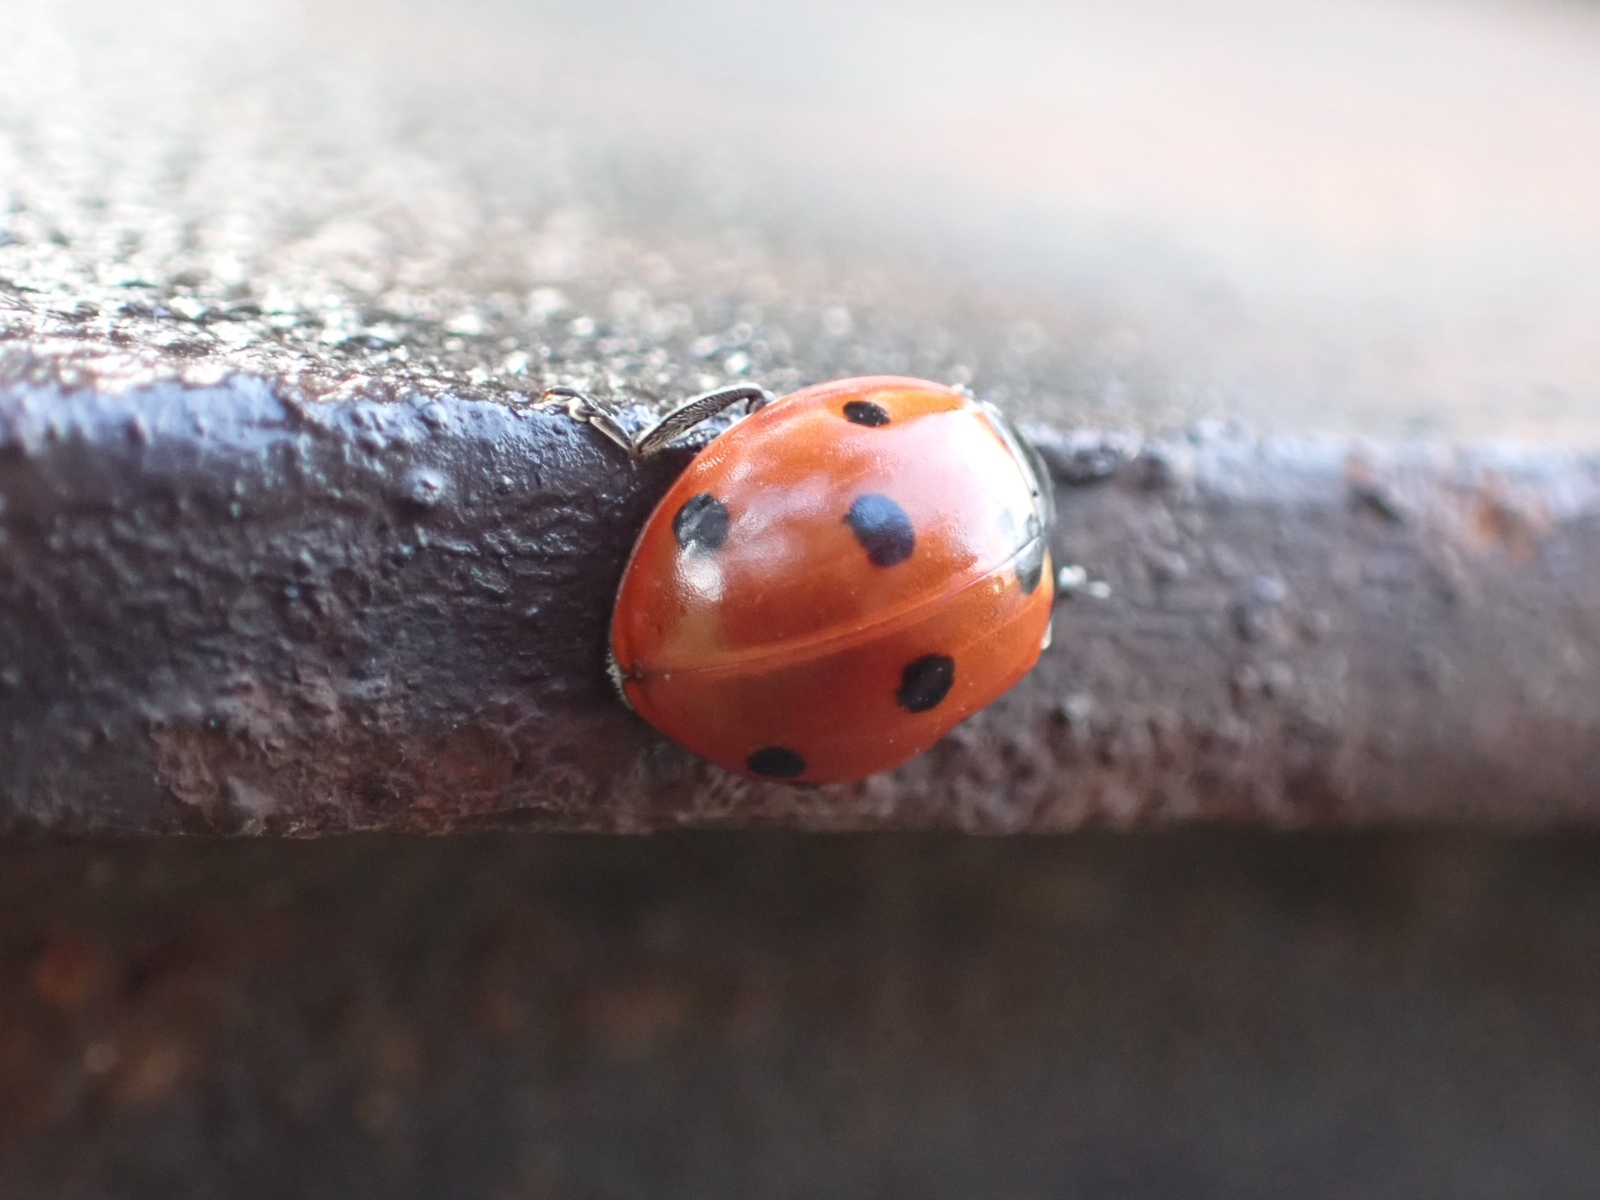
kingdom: Animalia
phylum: Arthropoda
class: Insecta
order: Coleoptera
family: Coccinellidae
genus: Coccinella
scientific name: Coccinella septempunctata
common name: Sevenspotted lady beetle
